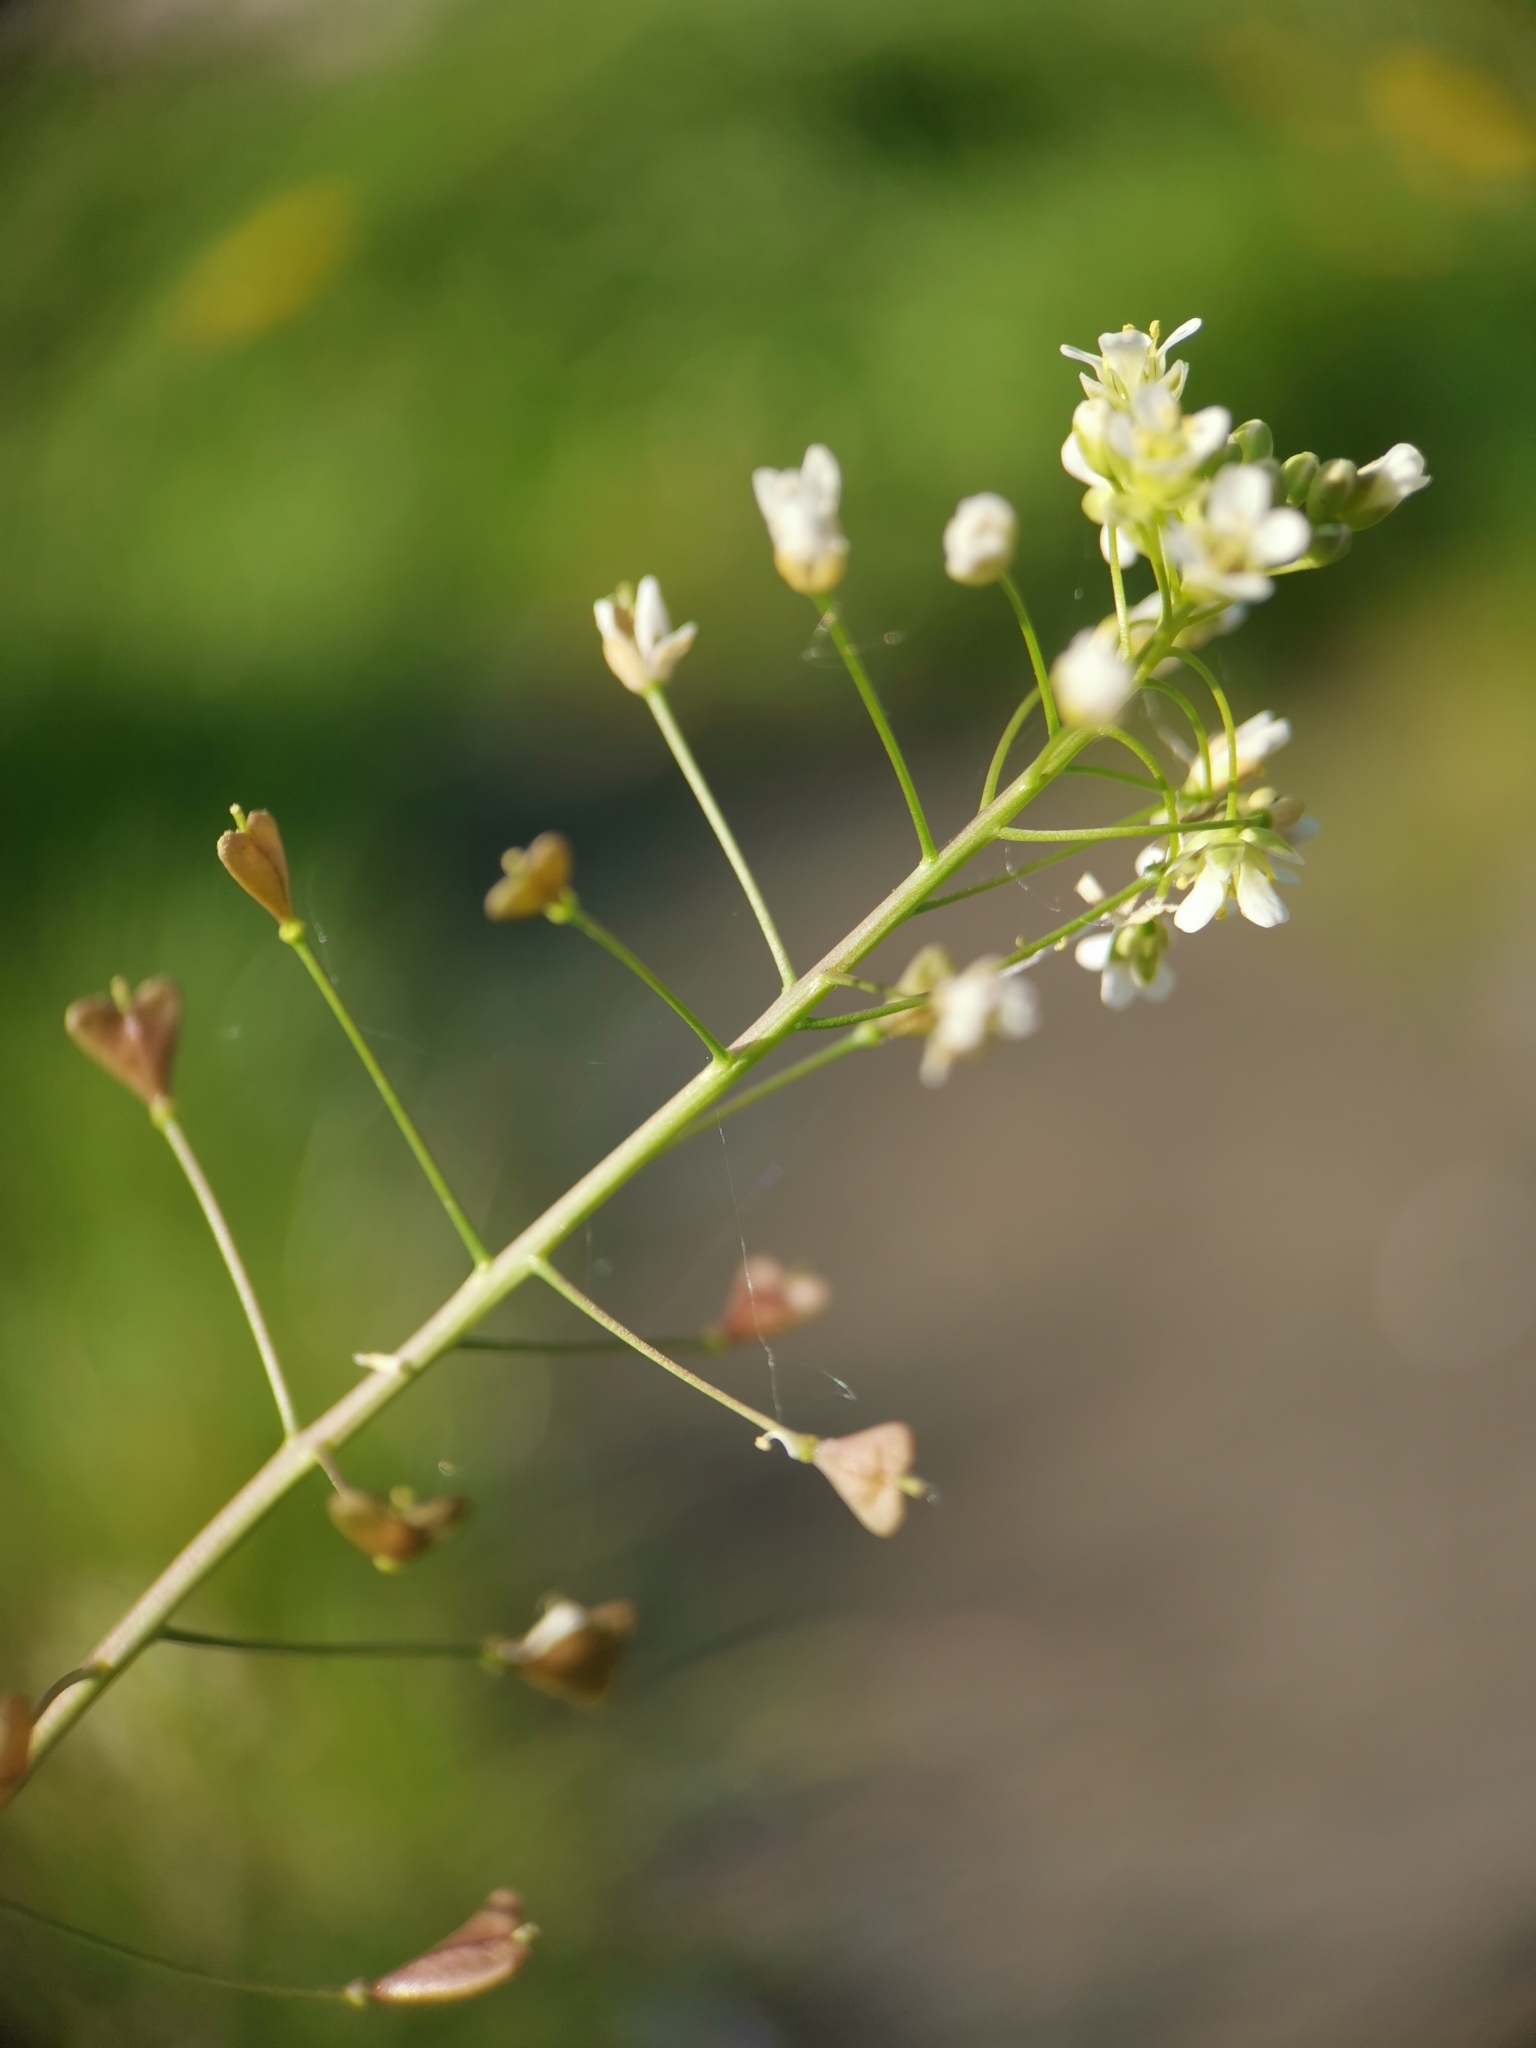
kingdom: Plantae
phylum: Tracheophyta
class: Magnoliopsida
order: Brassicales
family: Brassicaceae
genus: Capsella
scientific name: Capsella bursa-pastoris
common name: Shepherd's purse
